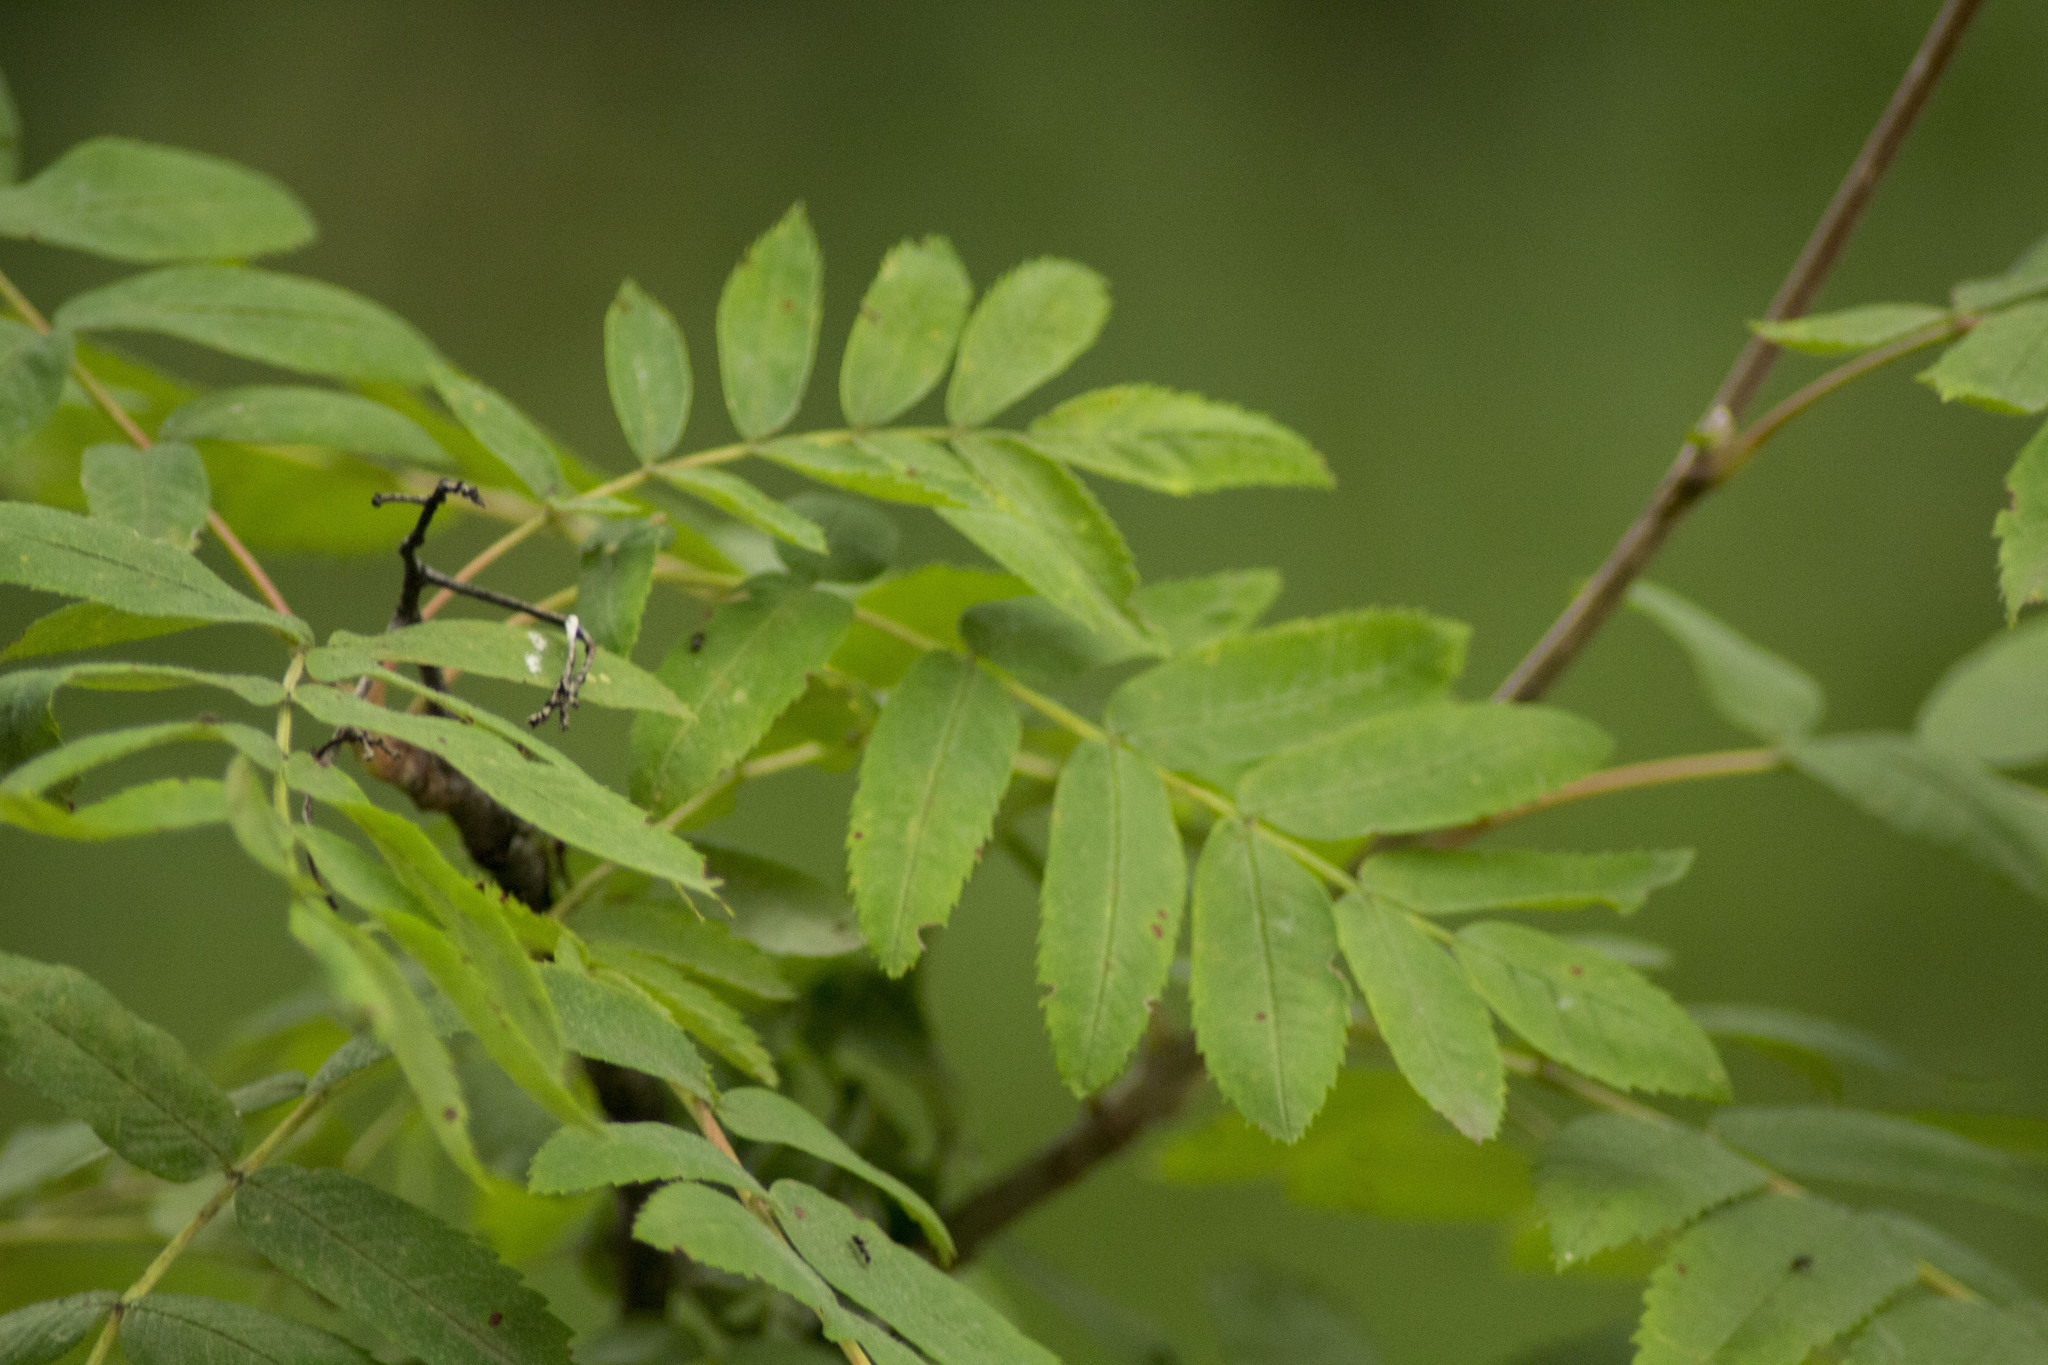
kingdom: Plantae
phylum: Tracheophyta
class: Magnoliopsida
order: Rosales
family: Rosaceae
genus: Sorbus
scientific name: Sorbus aucuparia
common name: Rowan
